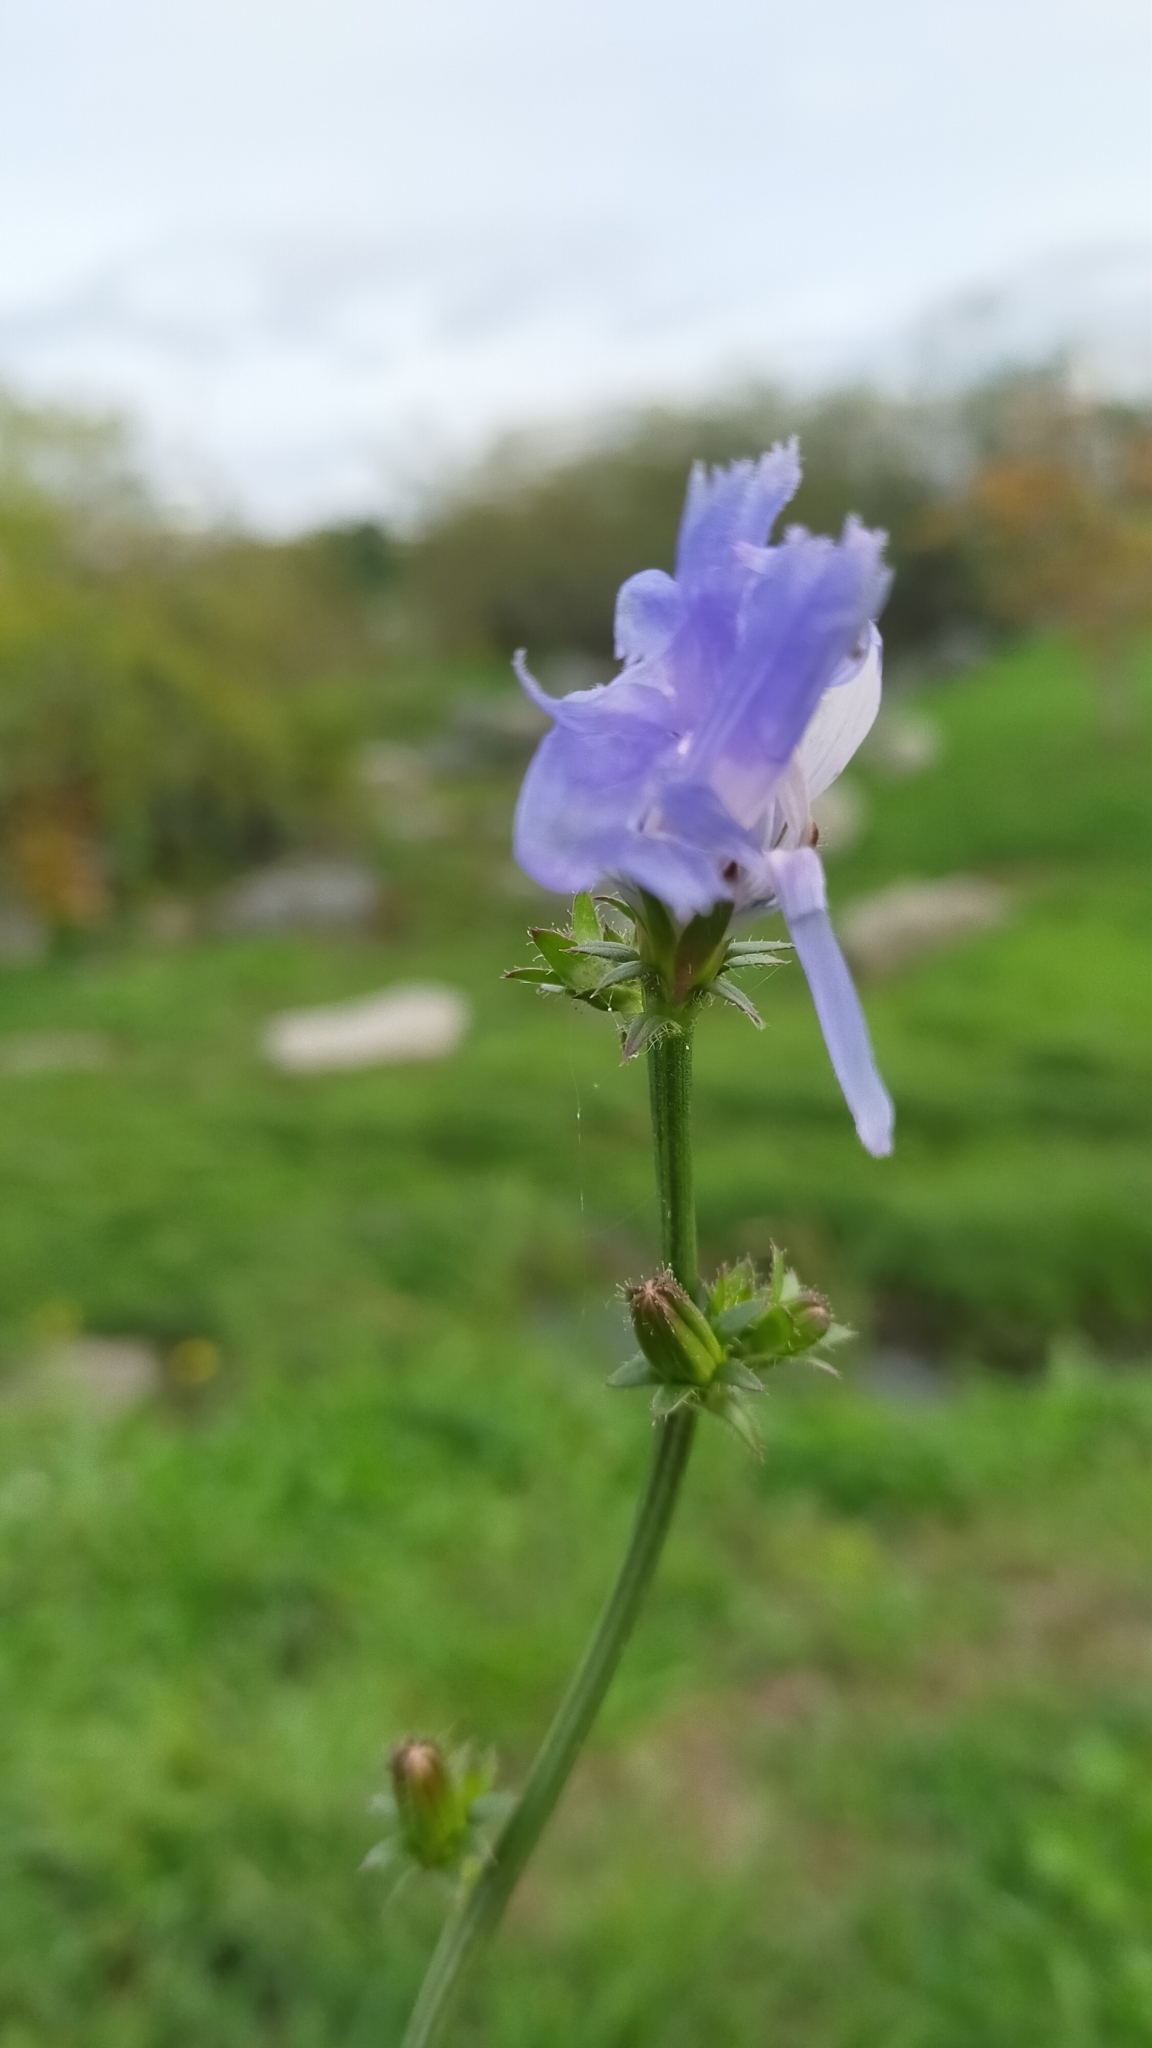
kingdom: Plantae
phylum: Tracheophyta
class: Magnoliopsida
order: Asterales
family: Asteraceae
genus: Cichorium
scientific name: Cichorium intybus
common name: Chicory
